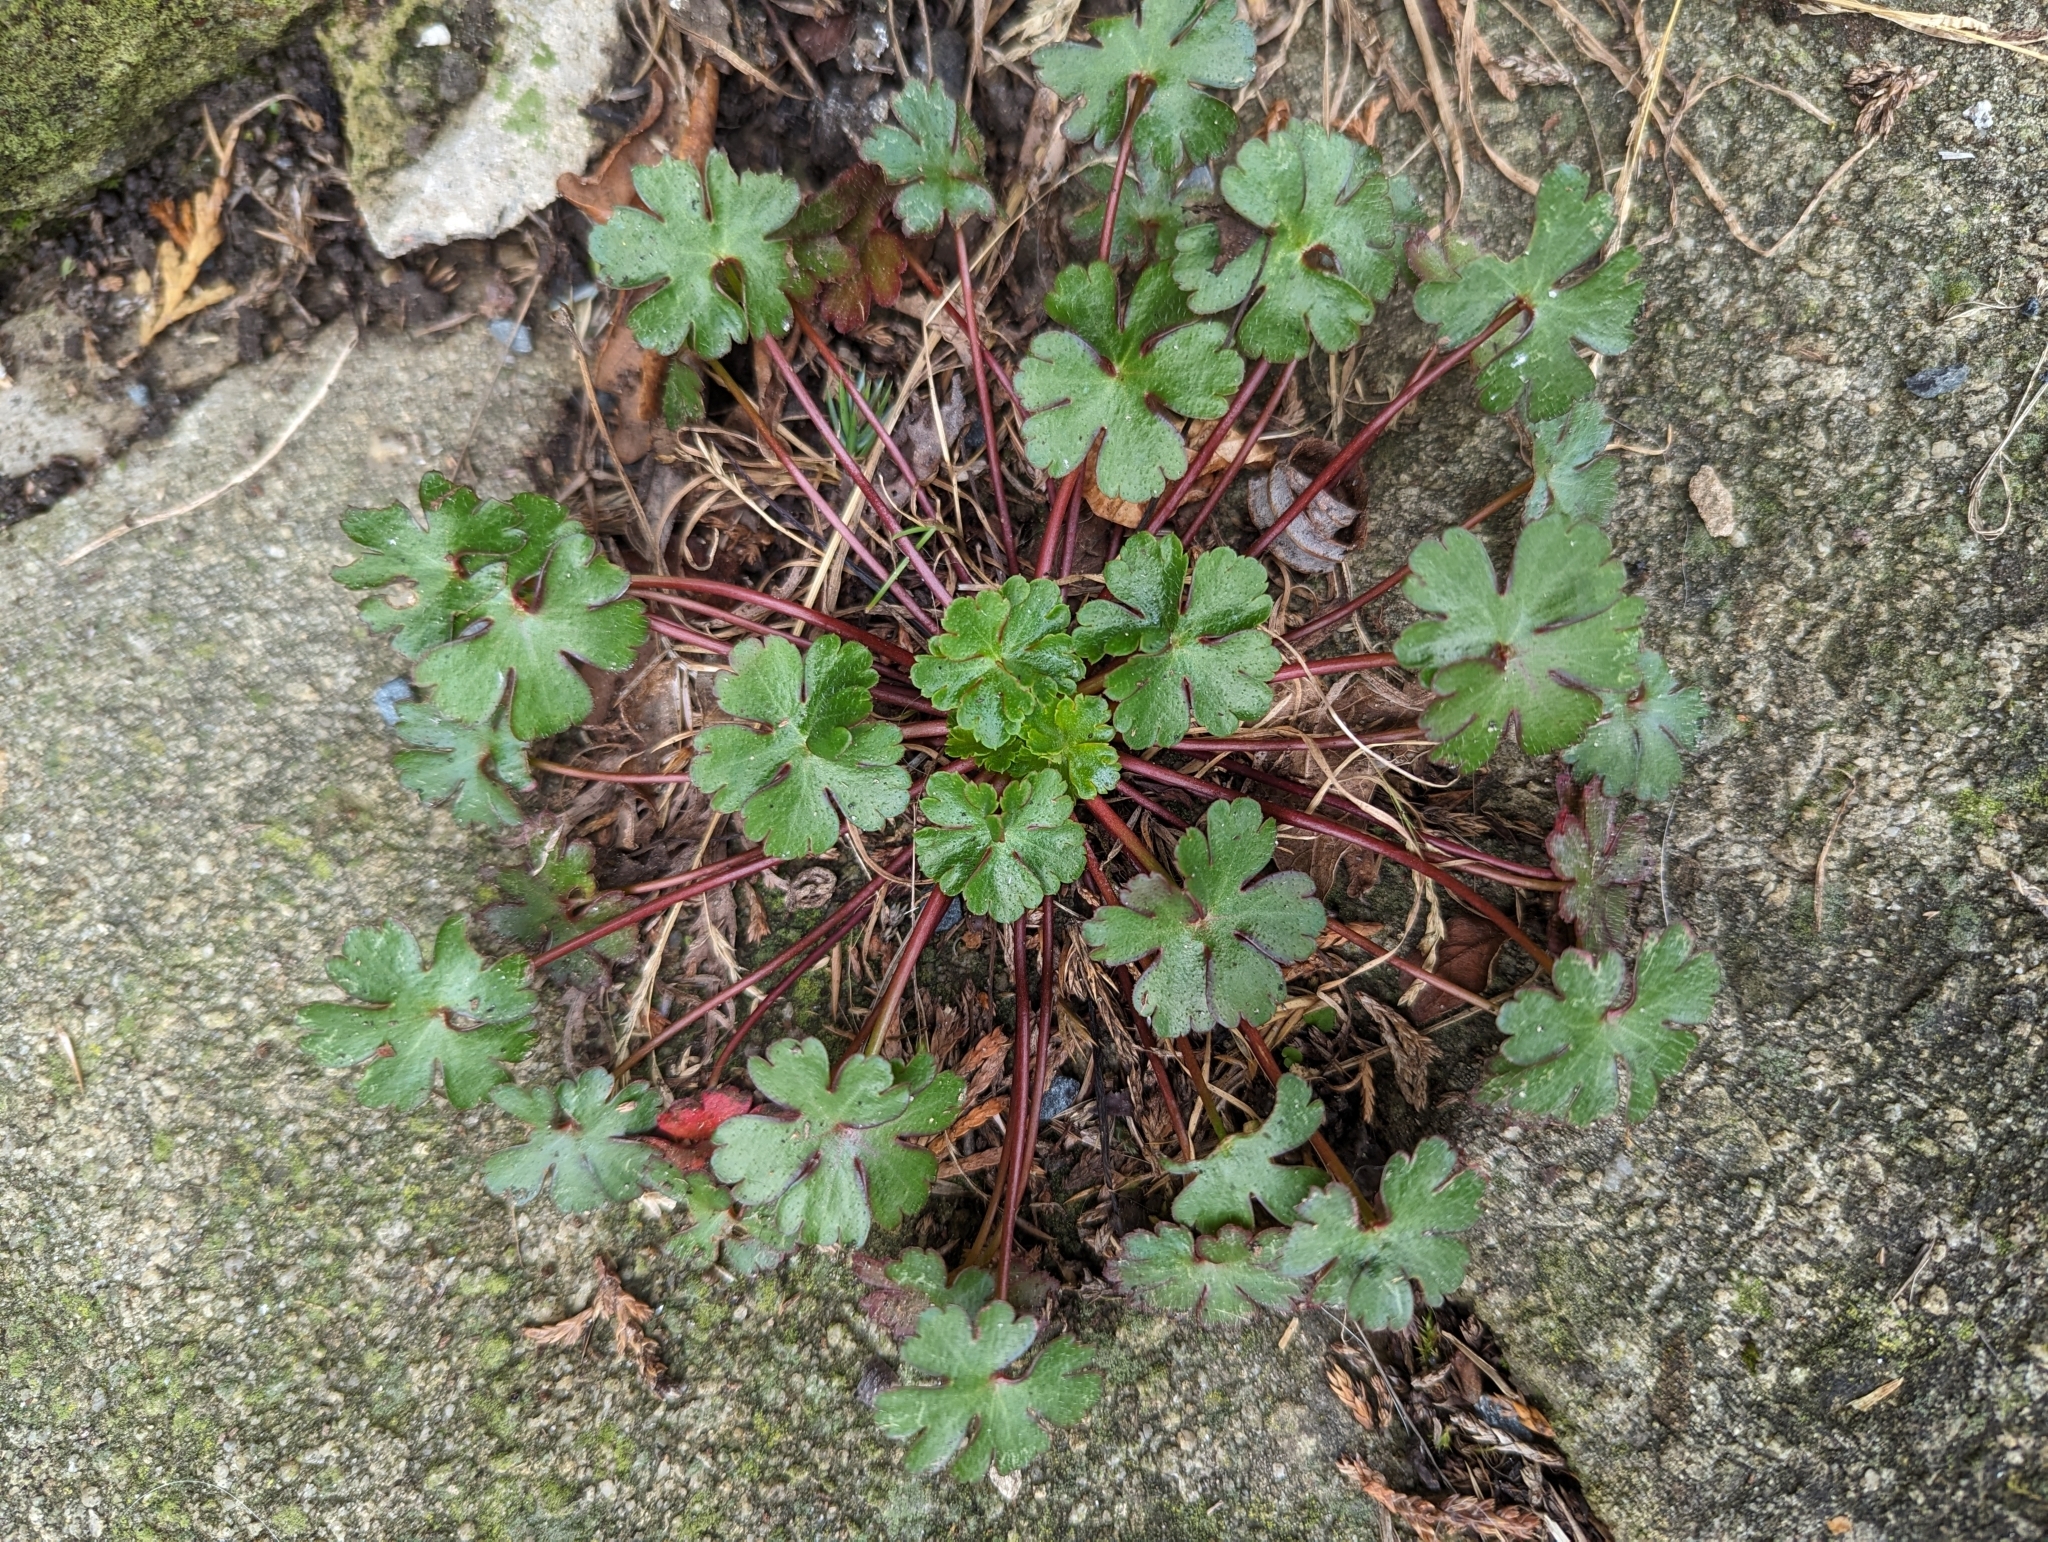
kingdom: Plantae
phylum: Tracheophyta
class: Magnoliopsida
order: Geraniales
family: Geraniaceae
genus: Geranium
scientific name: Geranium lucidum
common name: Shining crane's-bill
